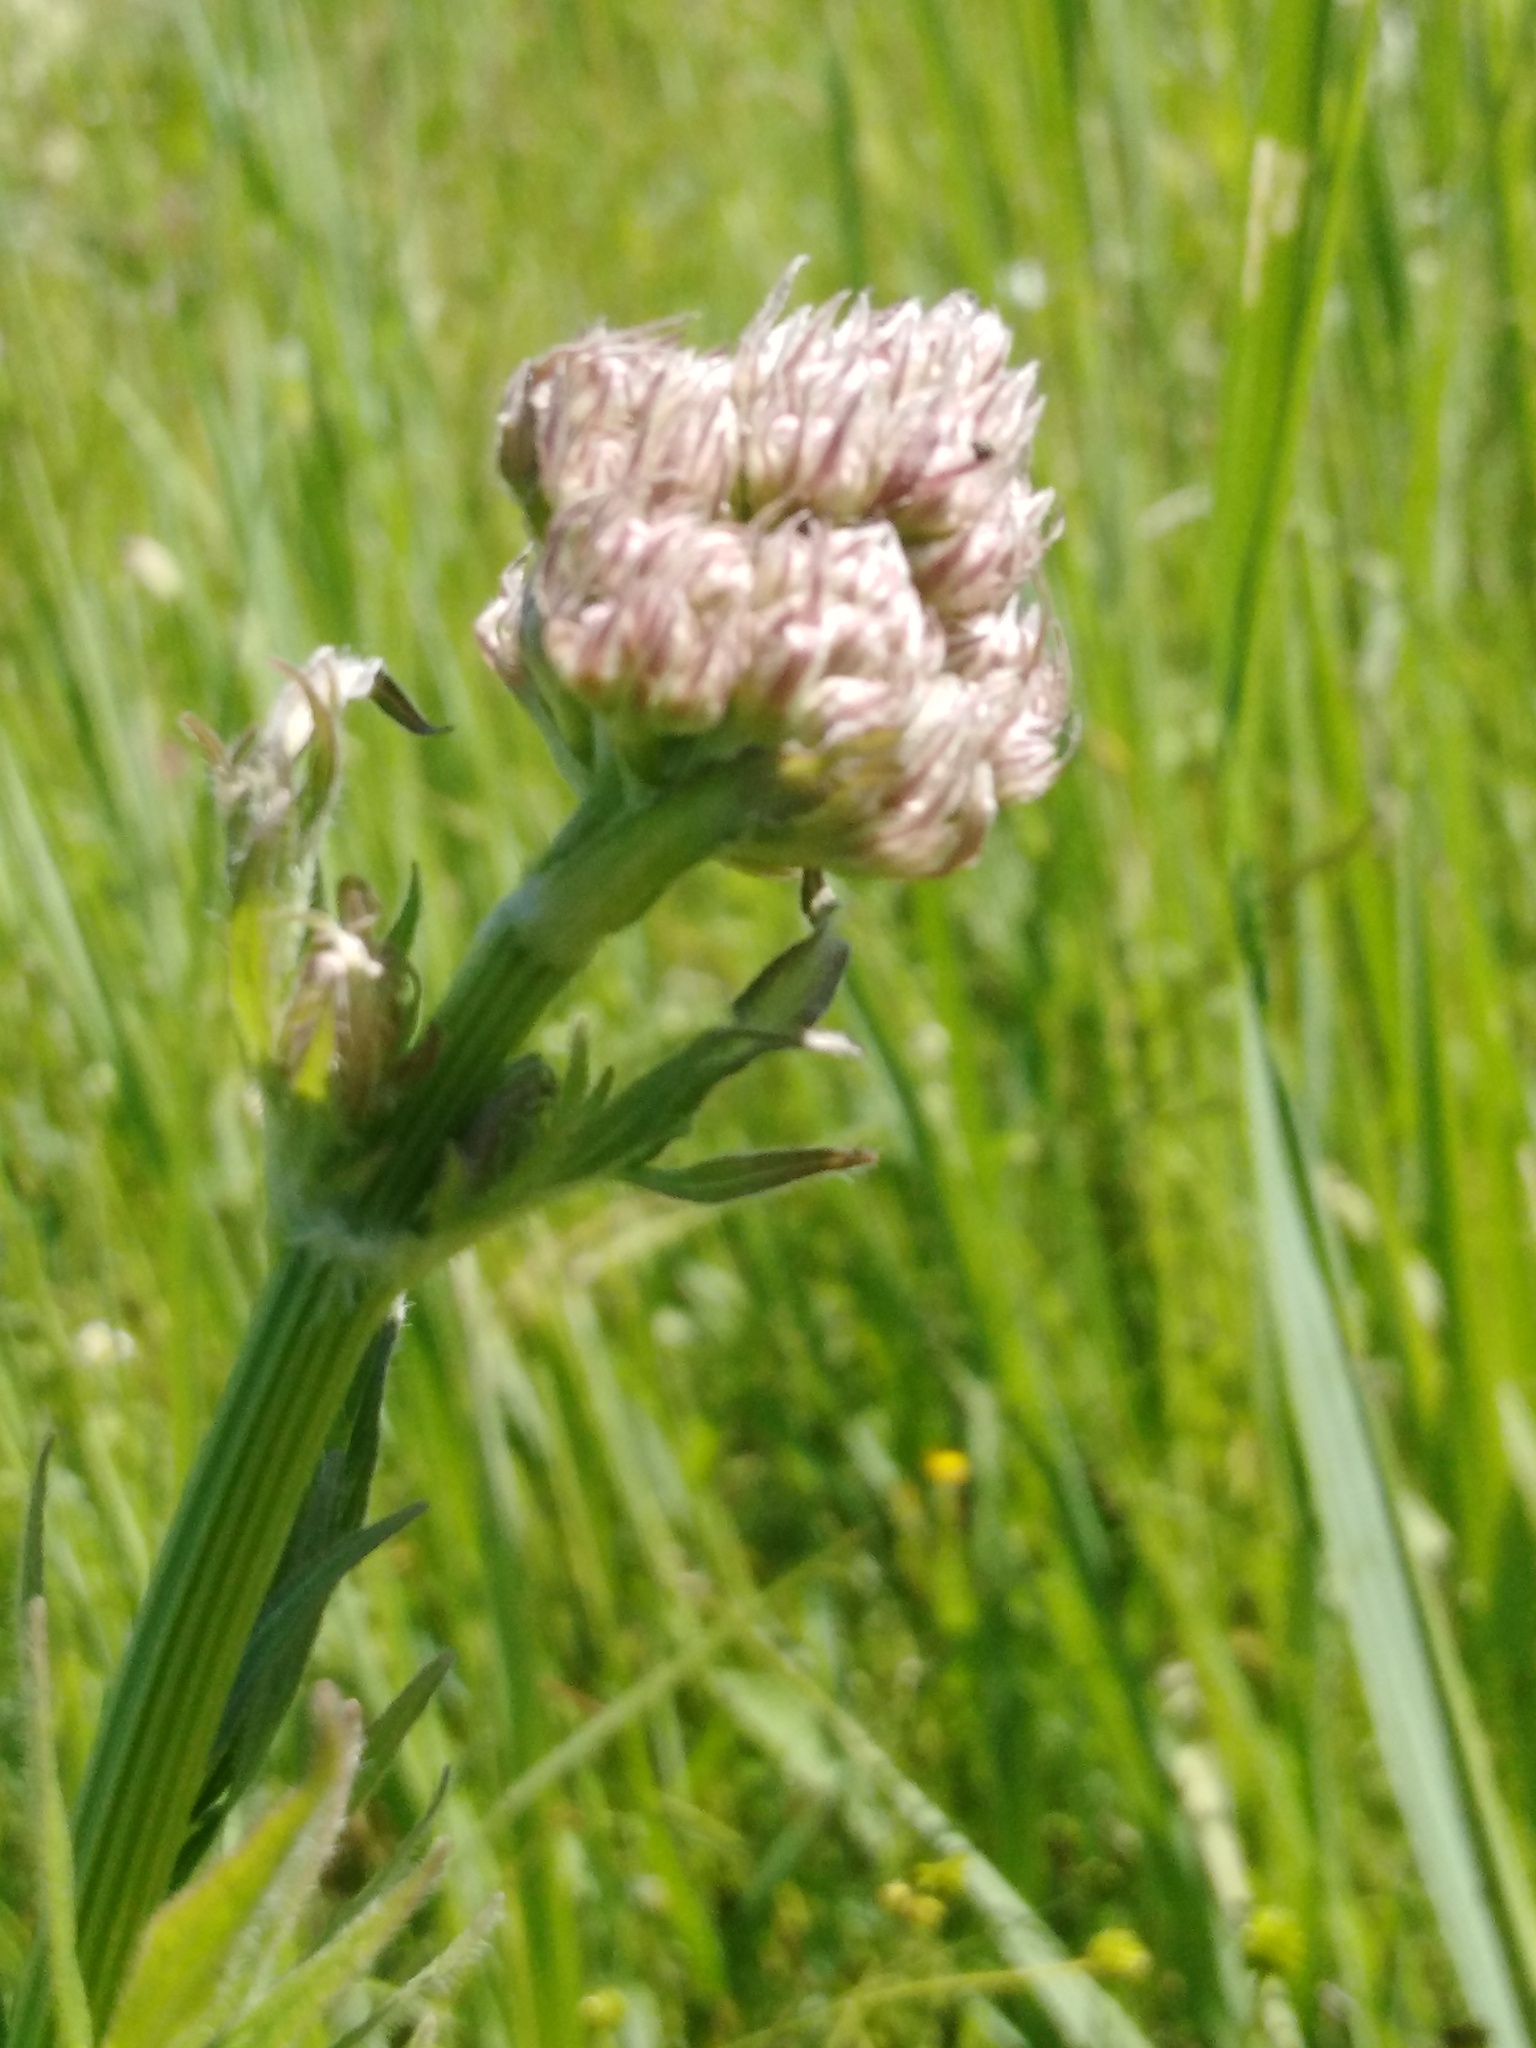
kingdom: Plantae
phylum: Tracheophyta
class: Magnoliopsida
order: Dipsacales
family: Caprifoliaceae
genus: Valeriana
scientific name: Valeriana officinalis
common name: Common valerian
